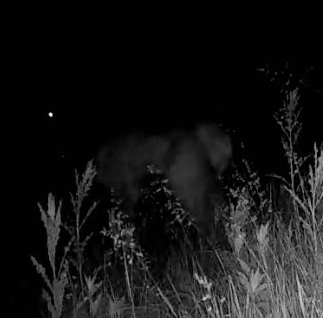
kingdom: Animalia
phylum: Chordata
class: Mammalia
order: Artiodactyla
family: Cervidae
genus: Cervus
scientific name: Cervus elaphus
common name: Red deer
